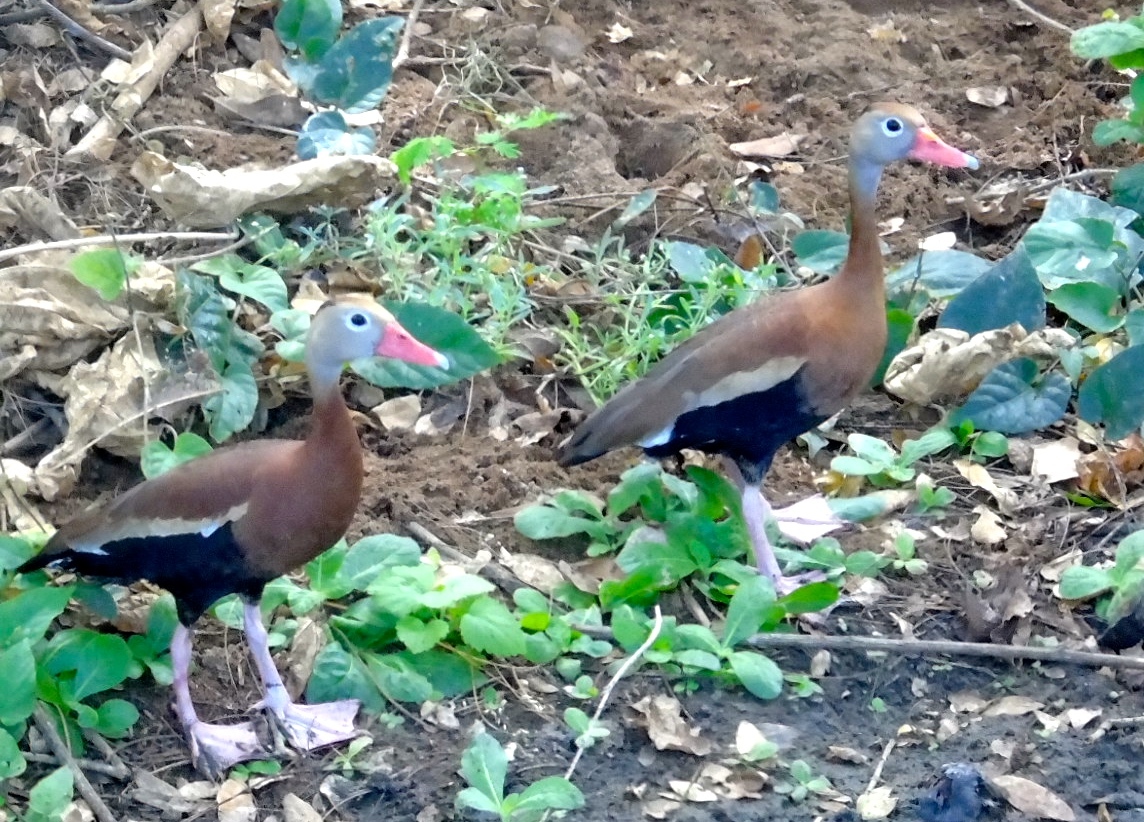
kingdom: Animalia
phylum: Chordata
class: Aves
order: Anseriformes
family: Anatidae
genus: Dendrocygna
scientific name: Dendrocygna autumnalis
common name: Black-bellied whistling duck
